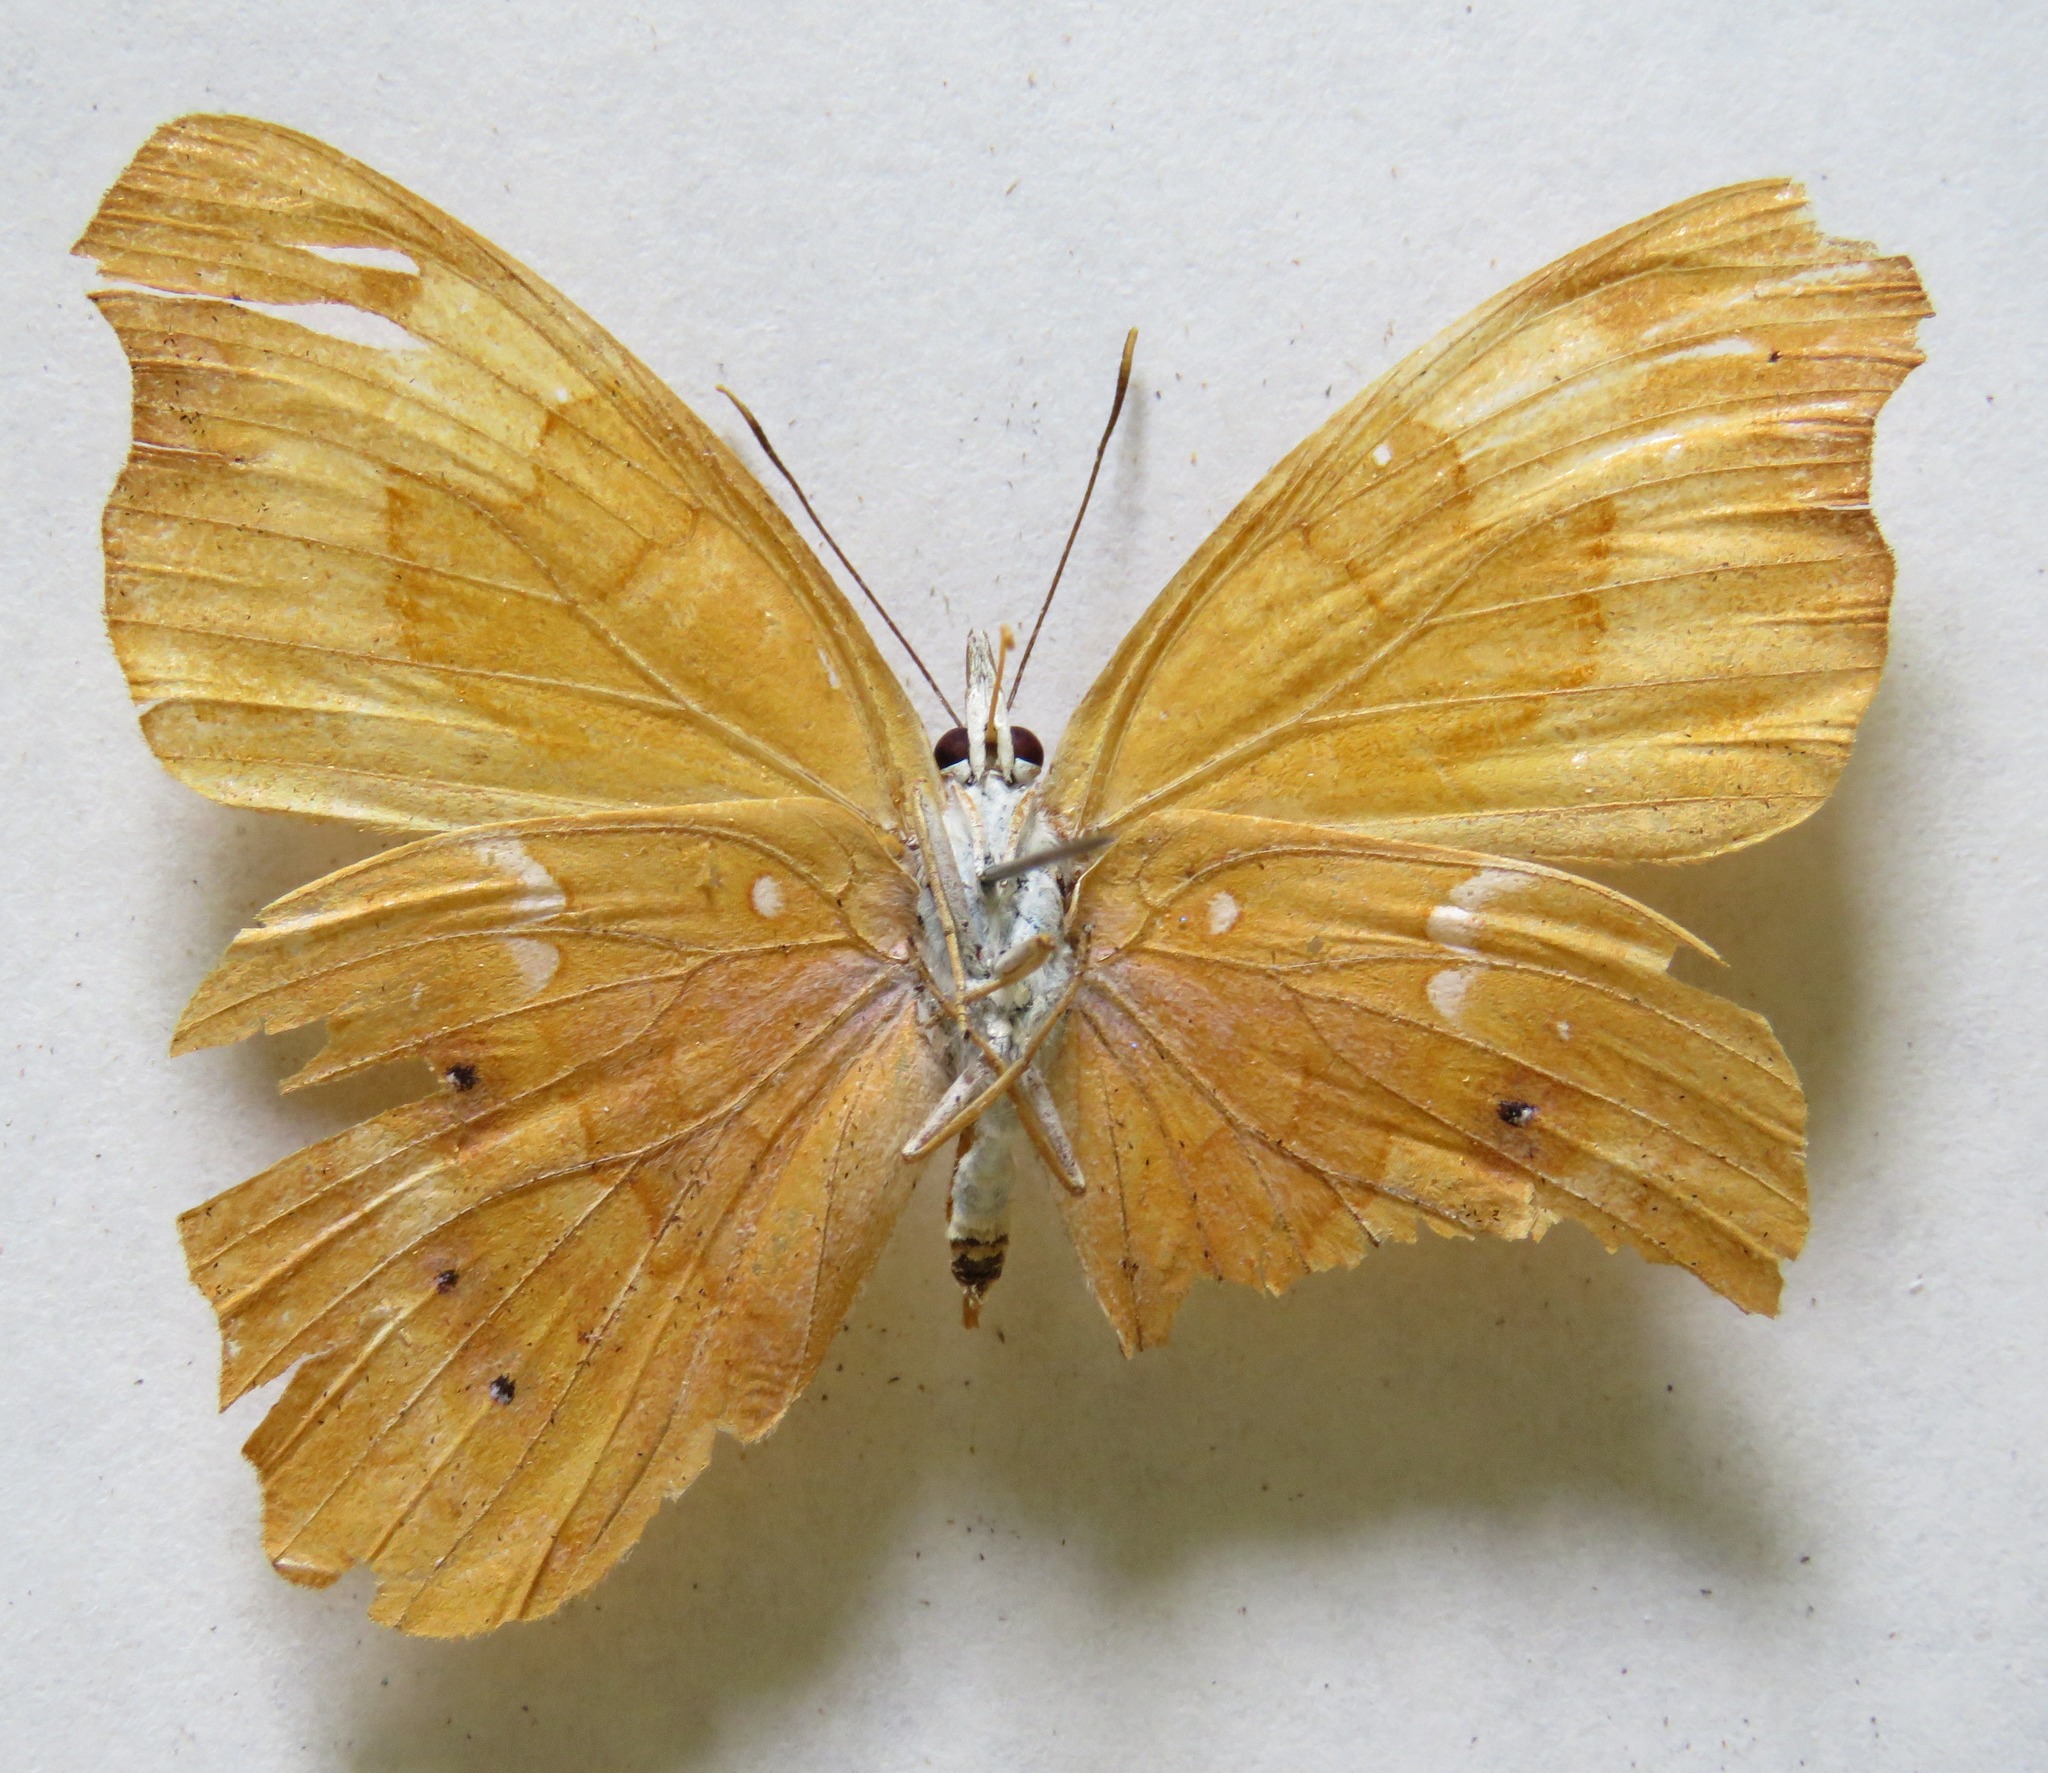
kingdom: Animalia
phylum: Arthropoda
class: Insecta
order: Lepidoptera
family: Nymphalidae
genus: Temenis
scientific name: Temenis laothoe
